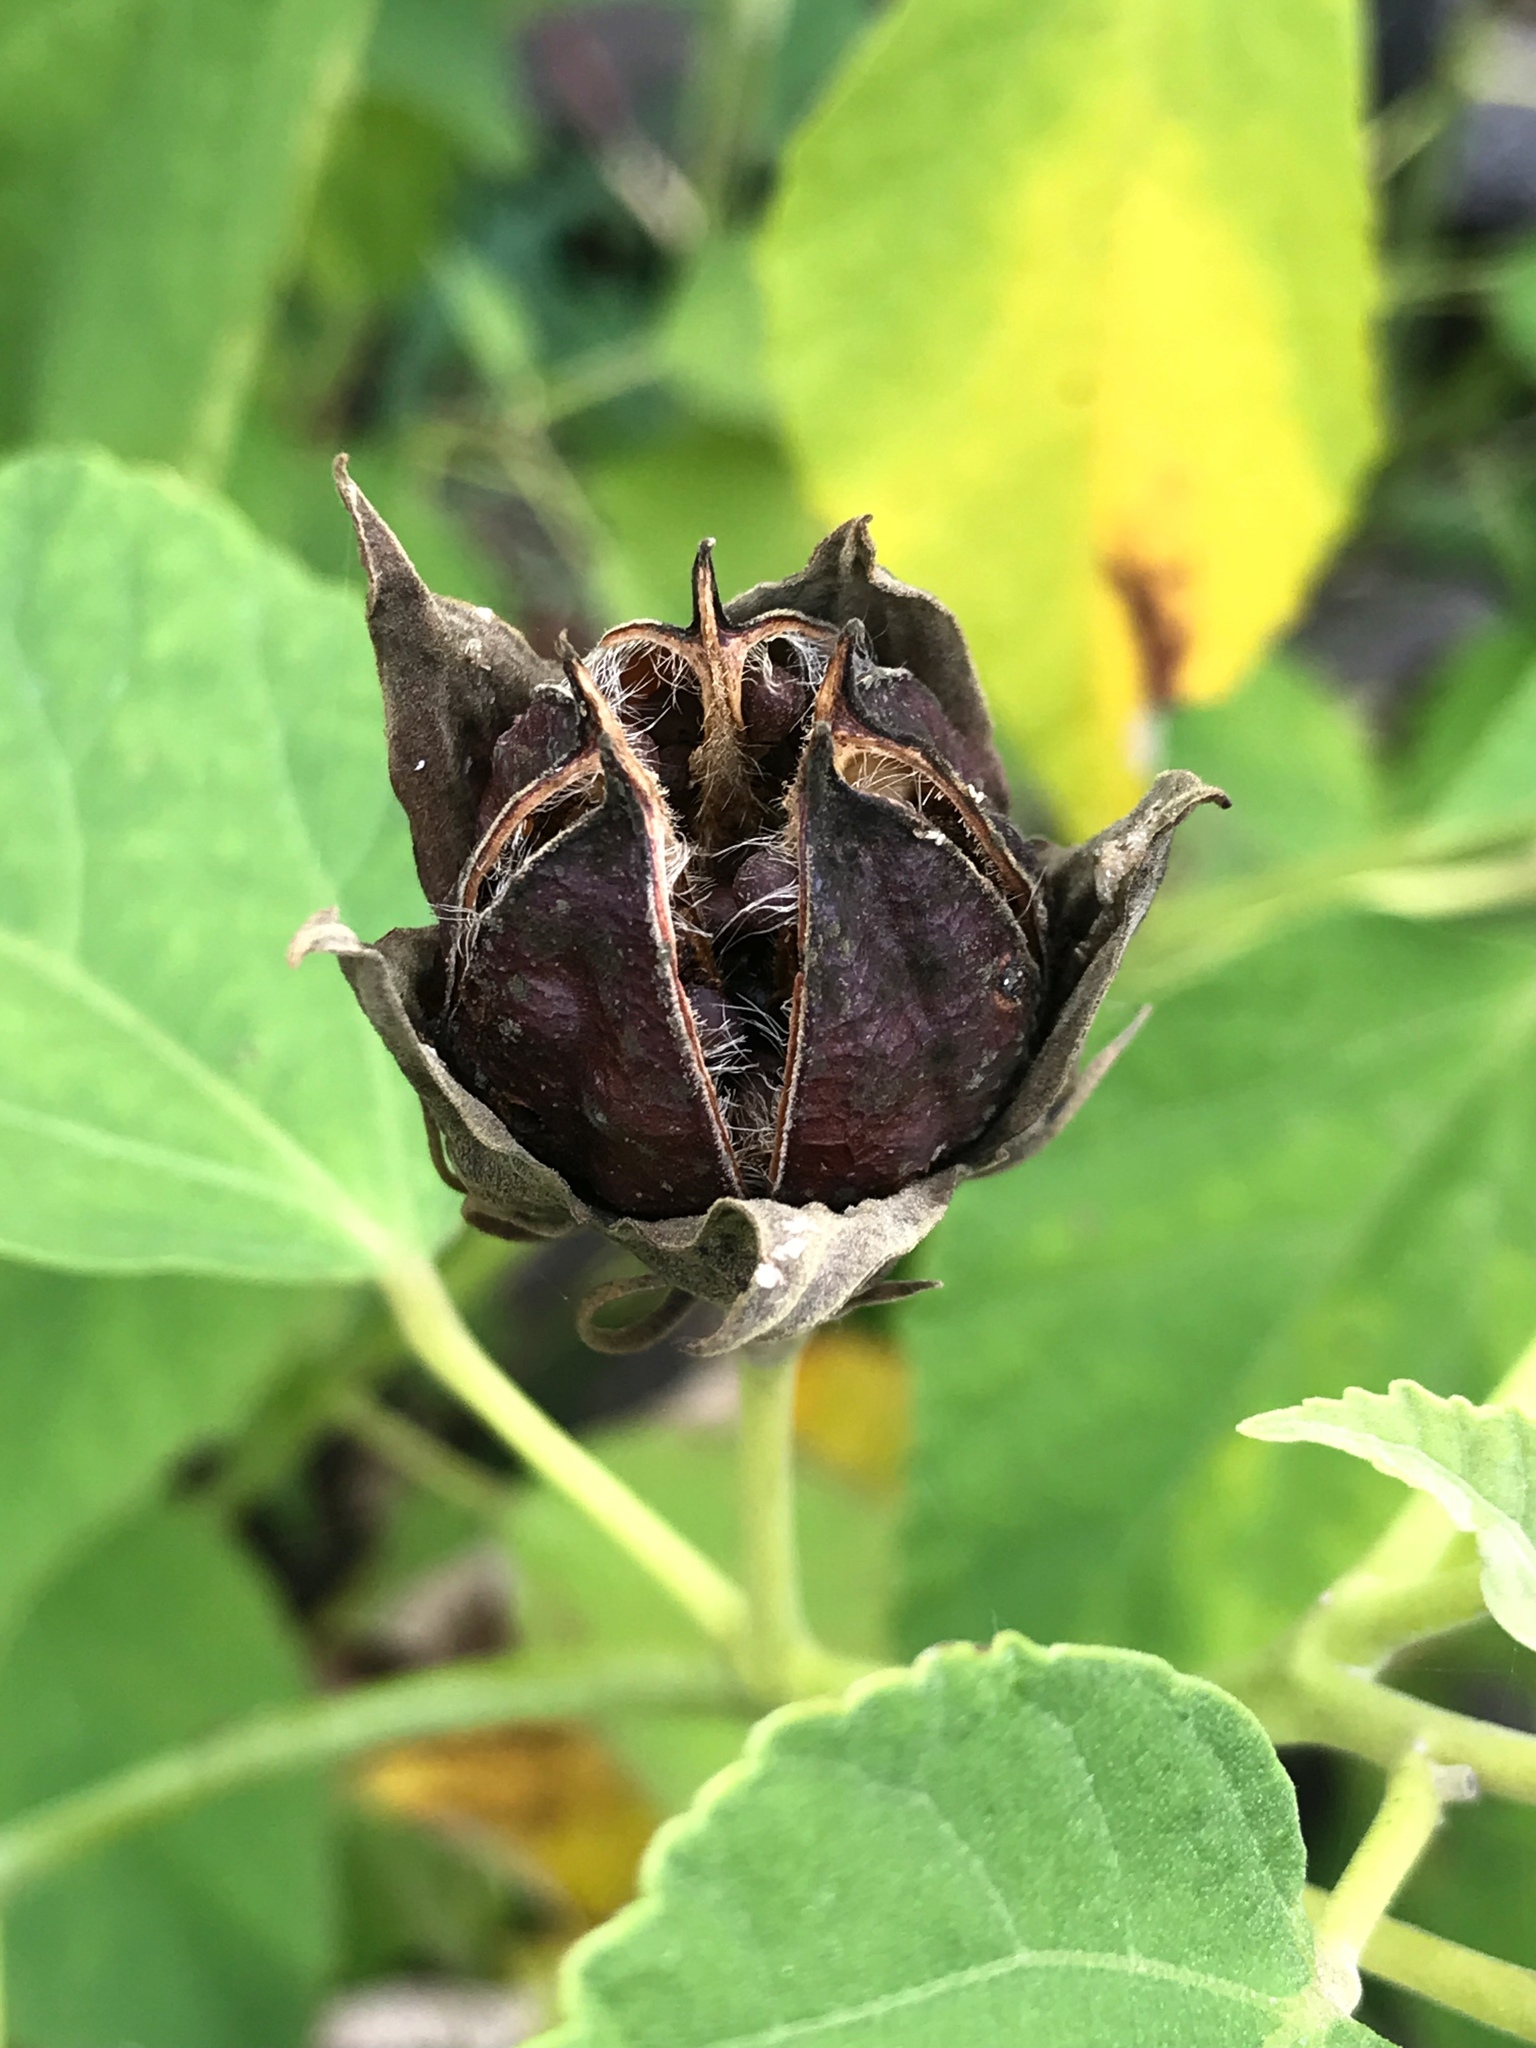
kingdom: Plantae
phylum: Tracheophyta
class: Magnoliopsida
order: Malvales
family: Malvaceae
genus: Hibiscus
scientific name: Hibiscus moscheutos
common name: Common rose-mallow
